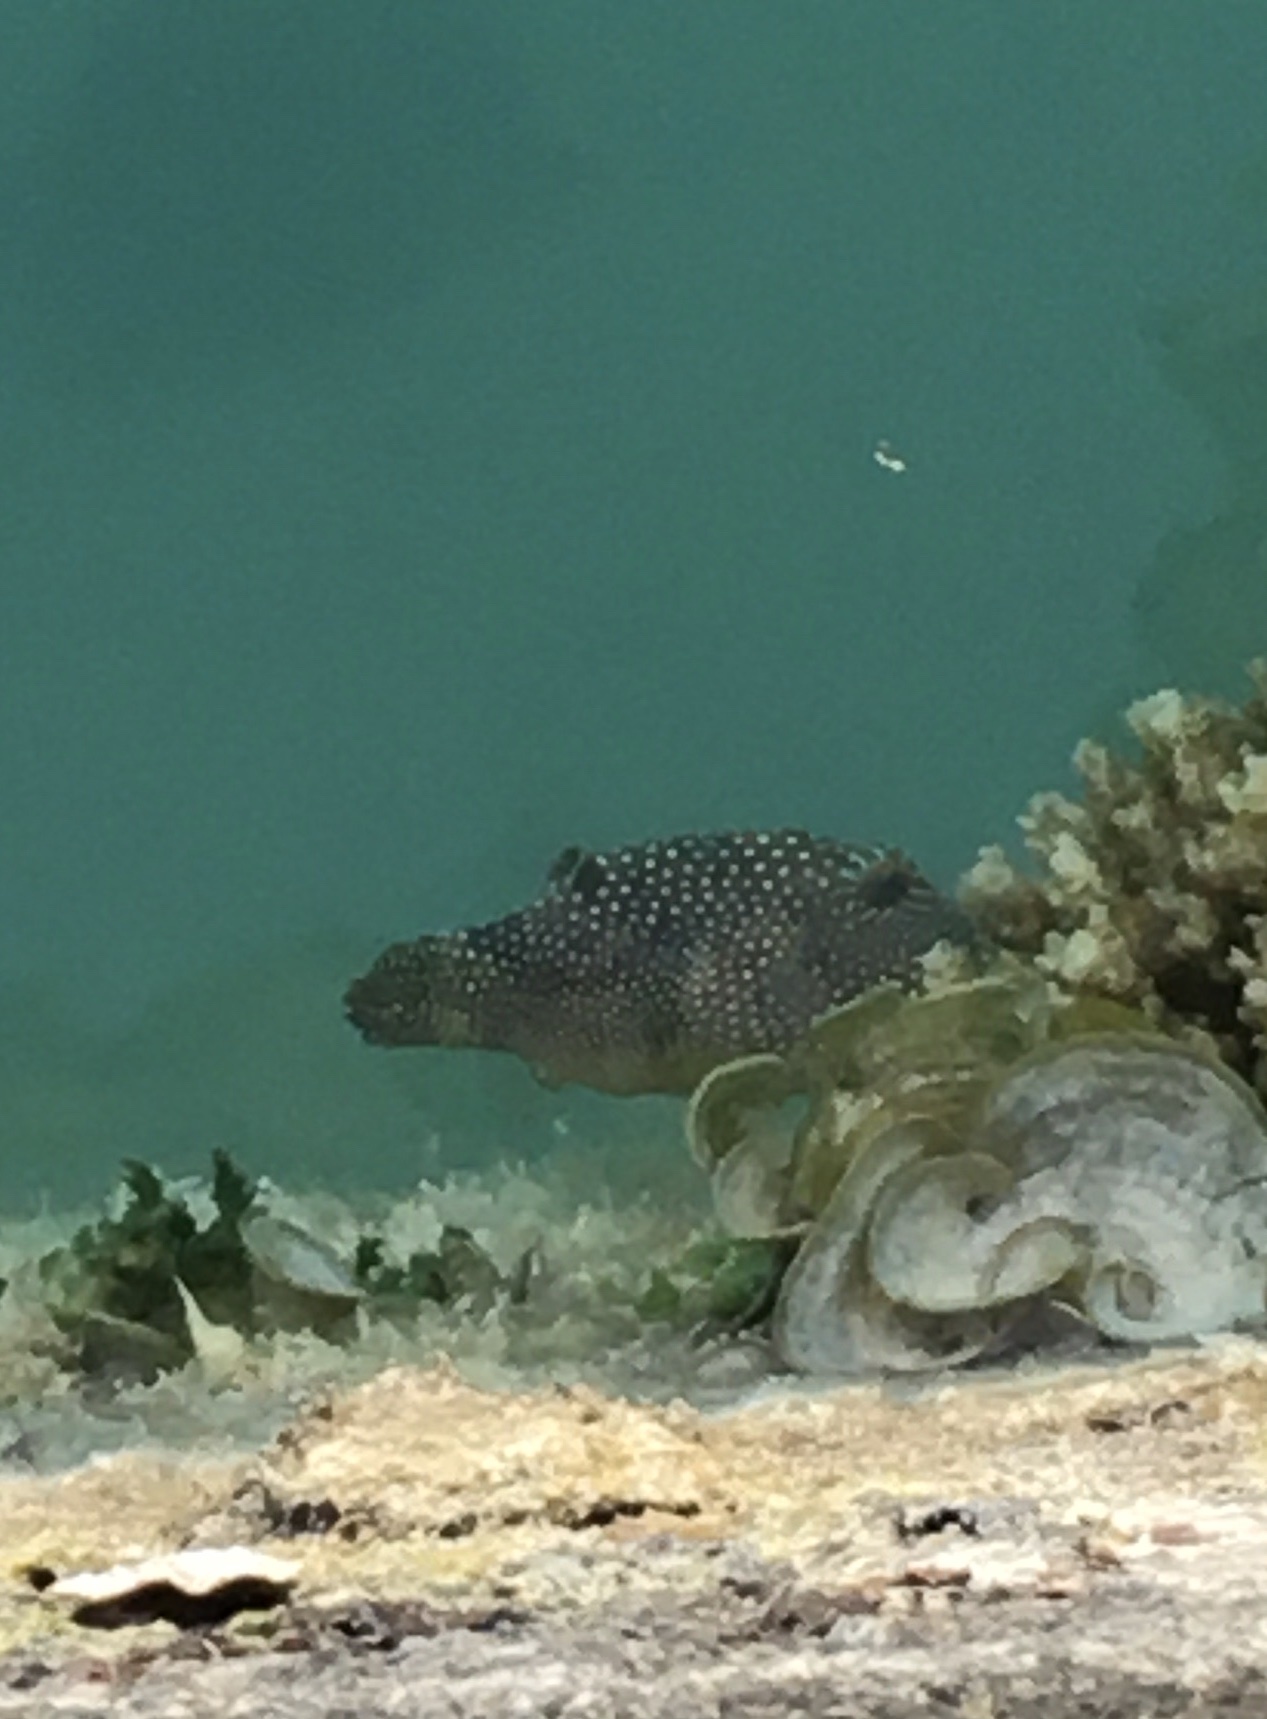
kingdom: Animalia
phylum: Chordata
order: Tetraodontiformes
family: Tetraodontidae
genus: Canthigaster
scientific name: Canthigaster solandri
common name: False-eye toby
